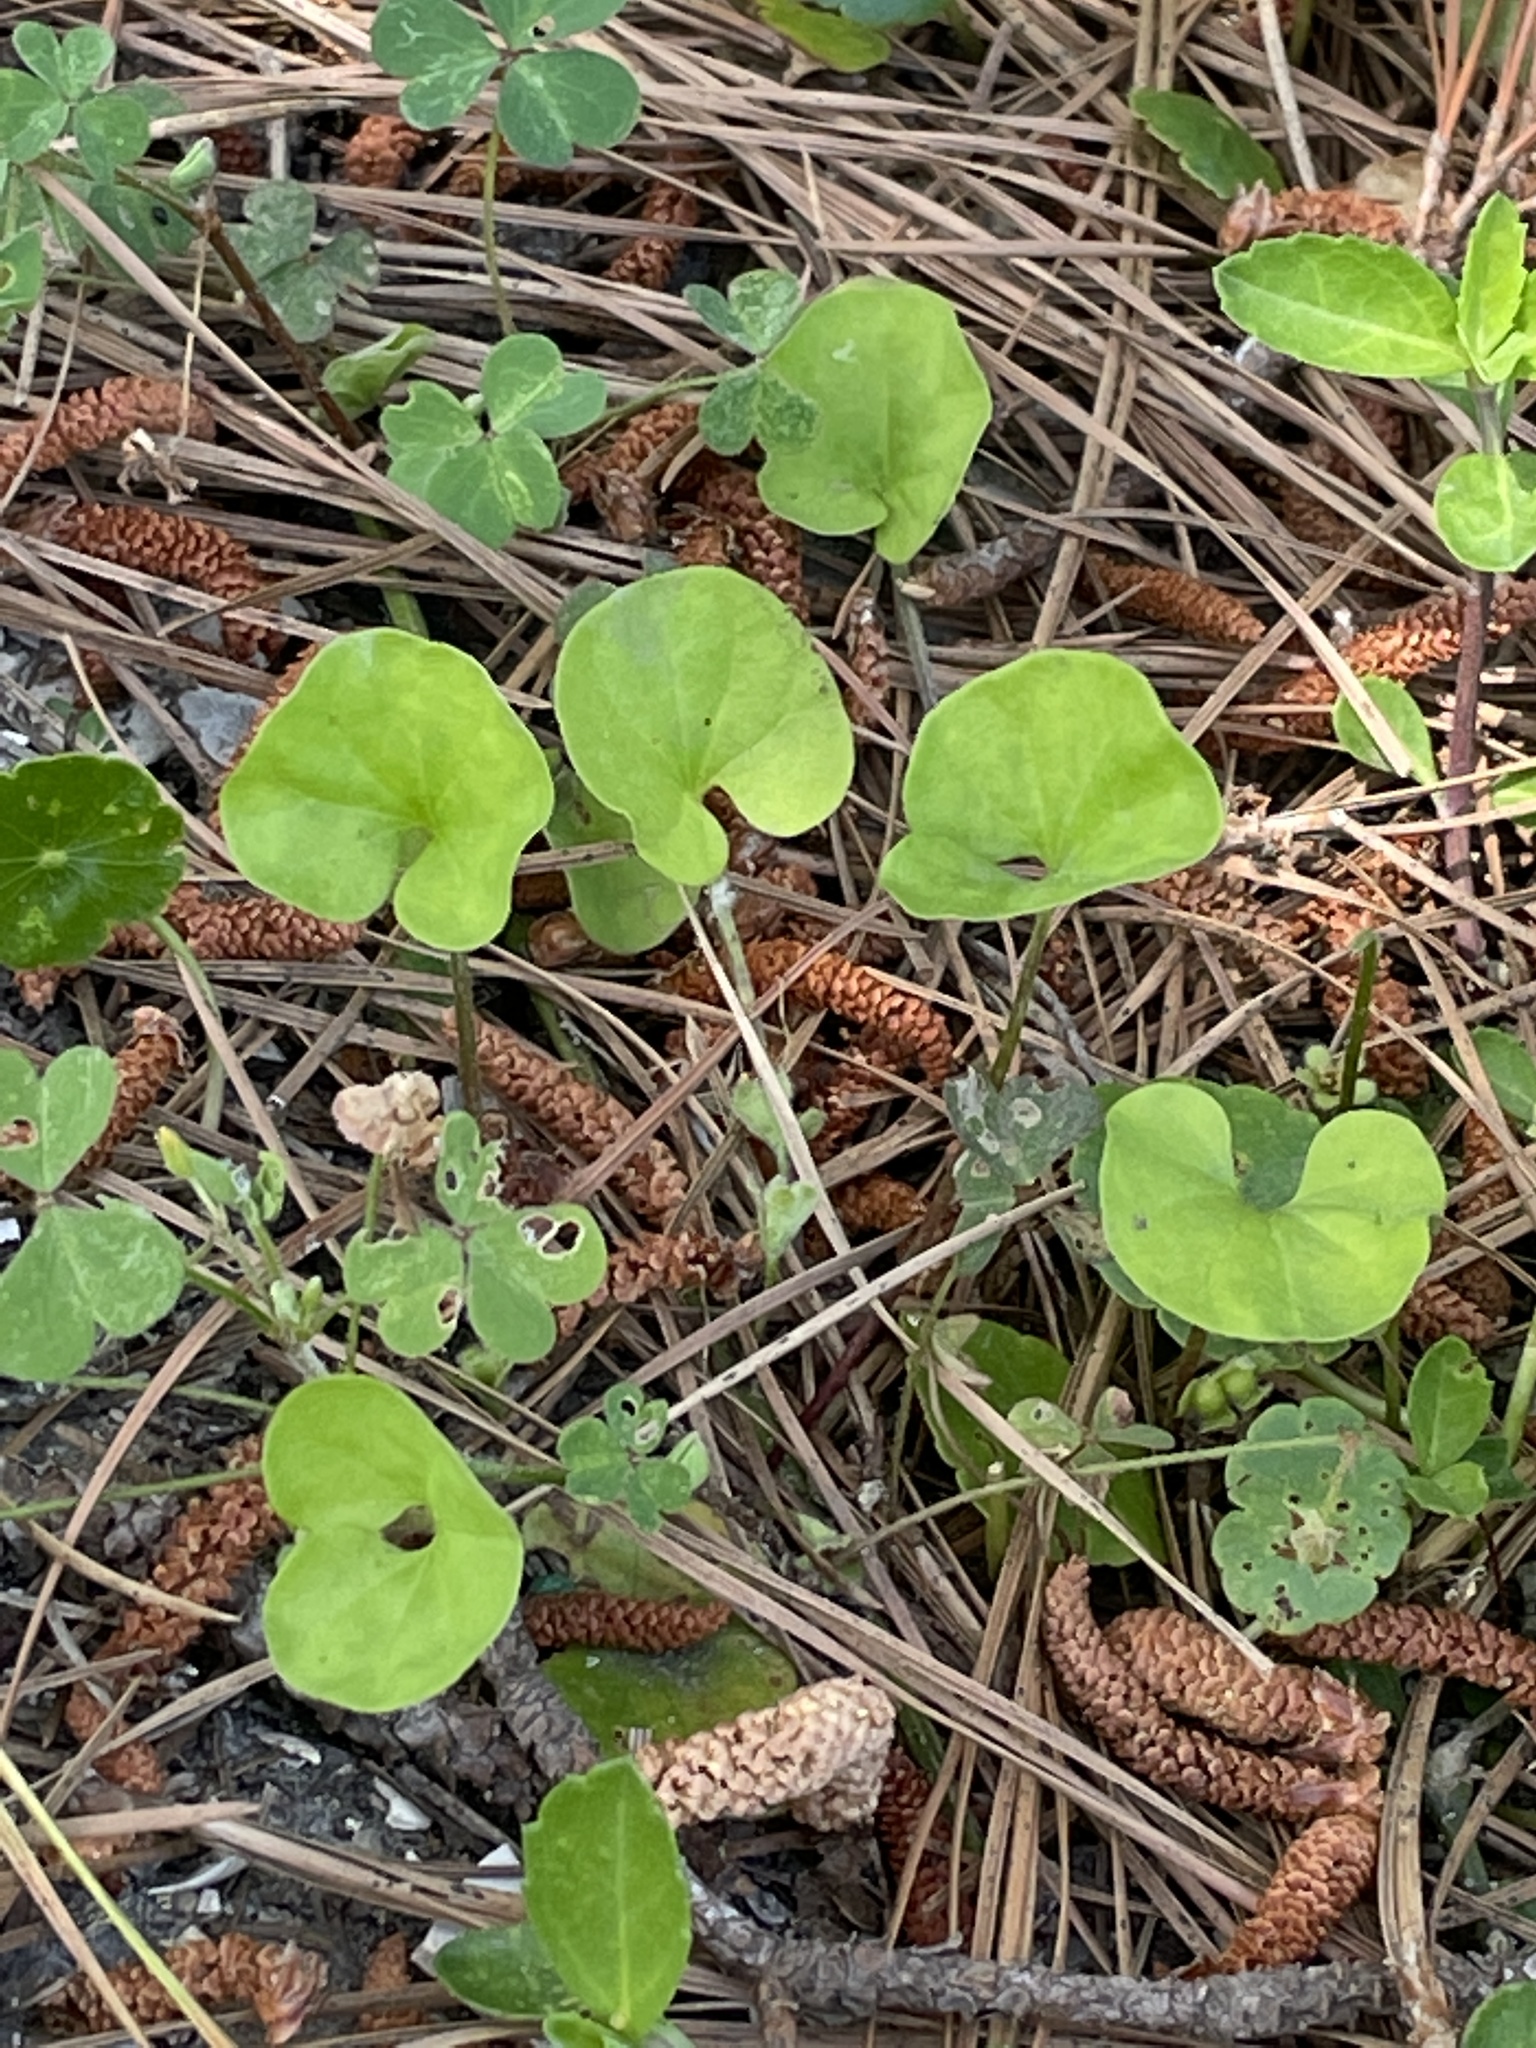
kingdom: Plantae
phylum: Tracheophyta
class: Magnoliopsida
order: Solanales
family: Convolvulaceae
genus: Dichondra
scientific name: Dichondra carolinensis
